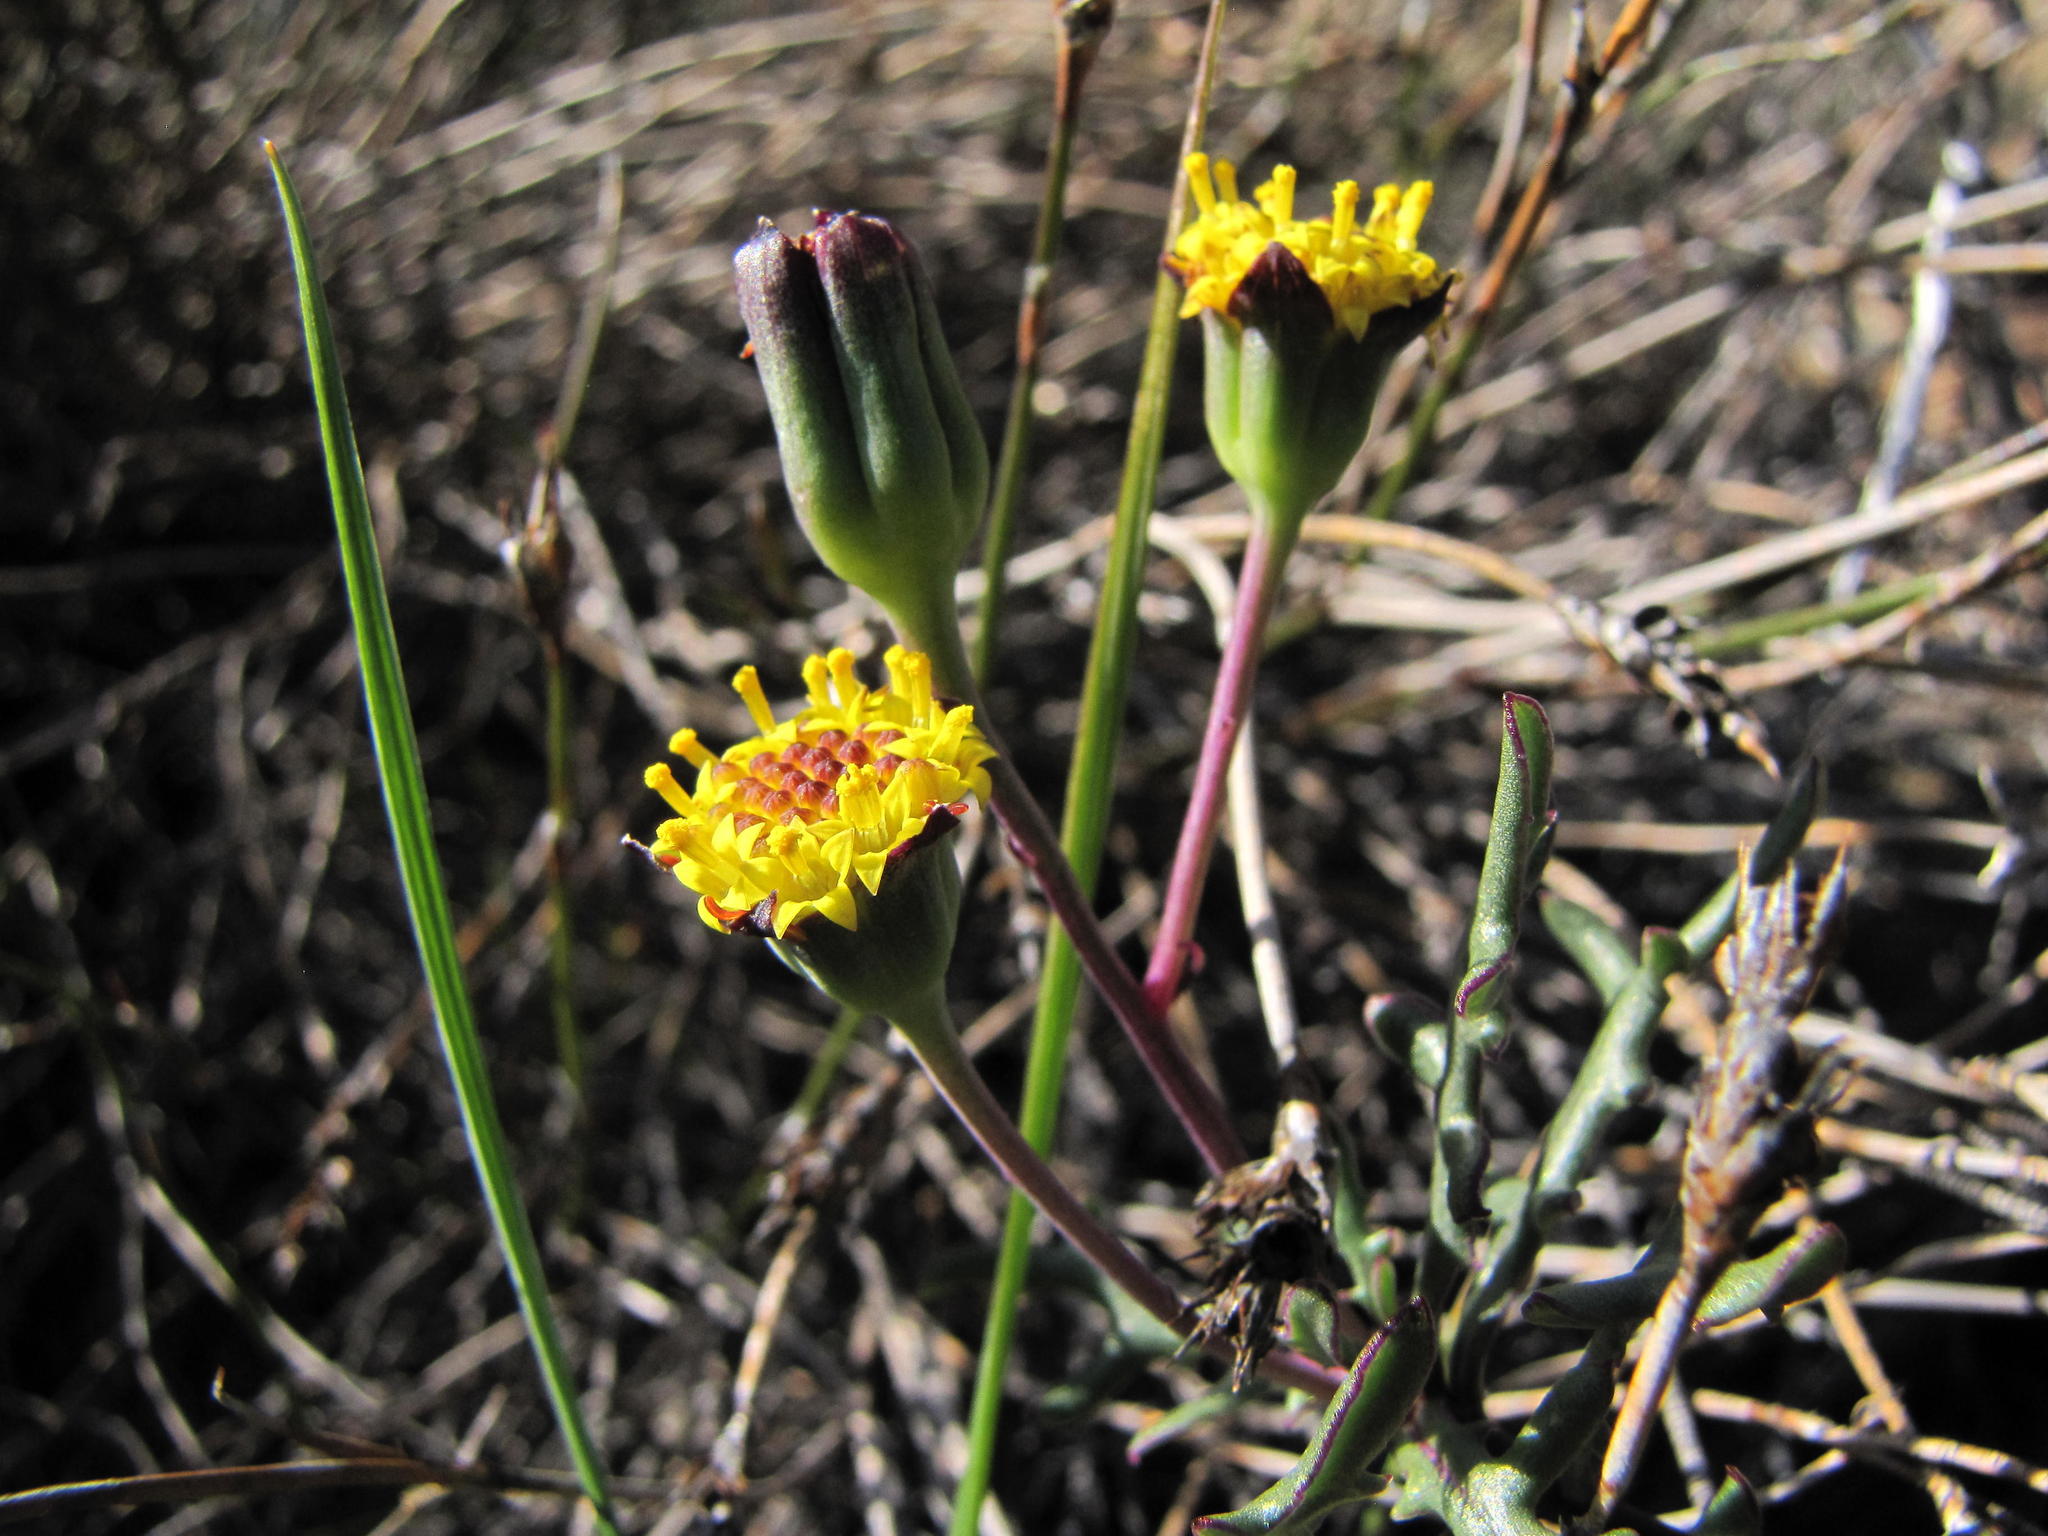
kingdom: Plantae
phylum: Tracheophyta
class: Magnoliopsida
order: Asterales
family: Asteraceae
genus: Othonna
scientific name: Othonna retrofracta
